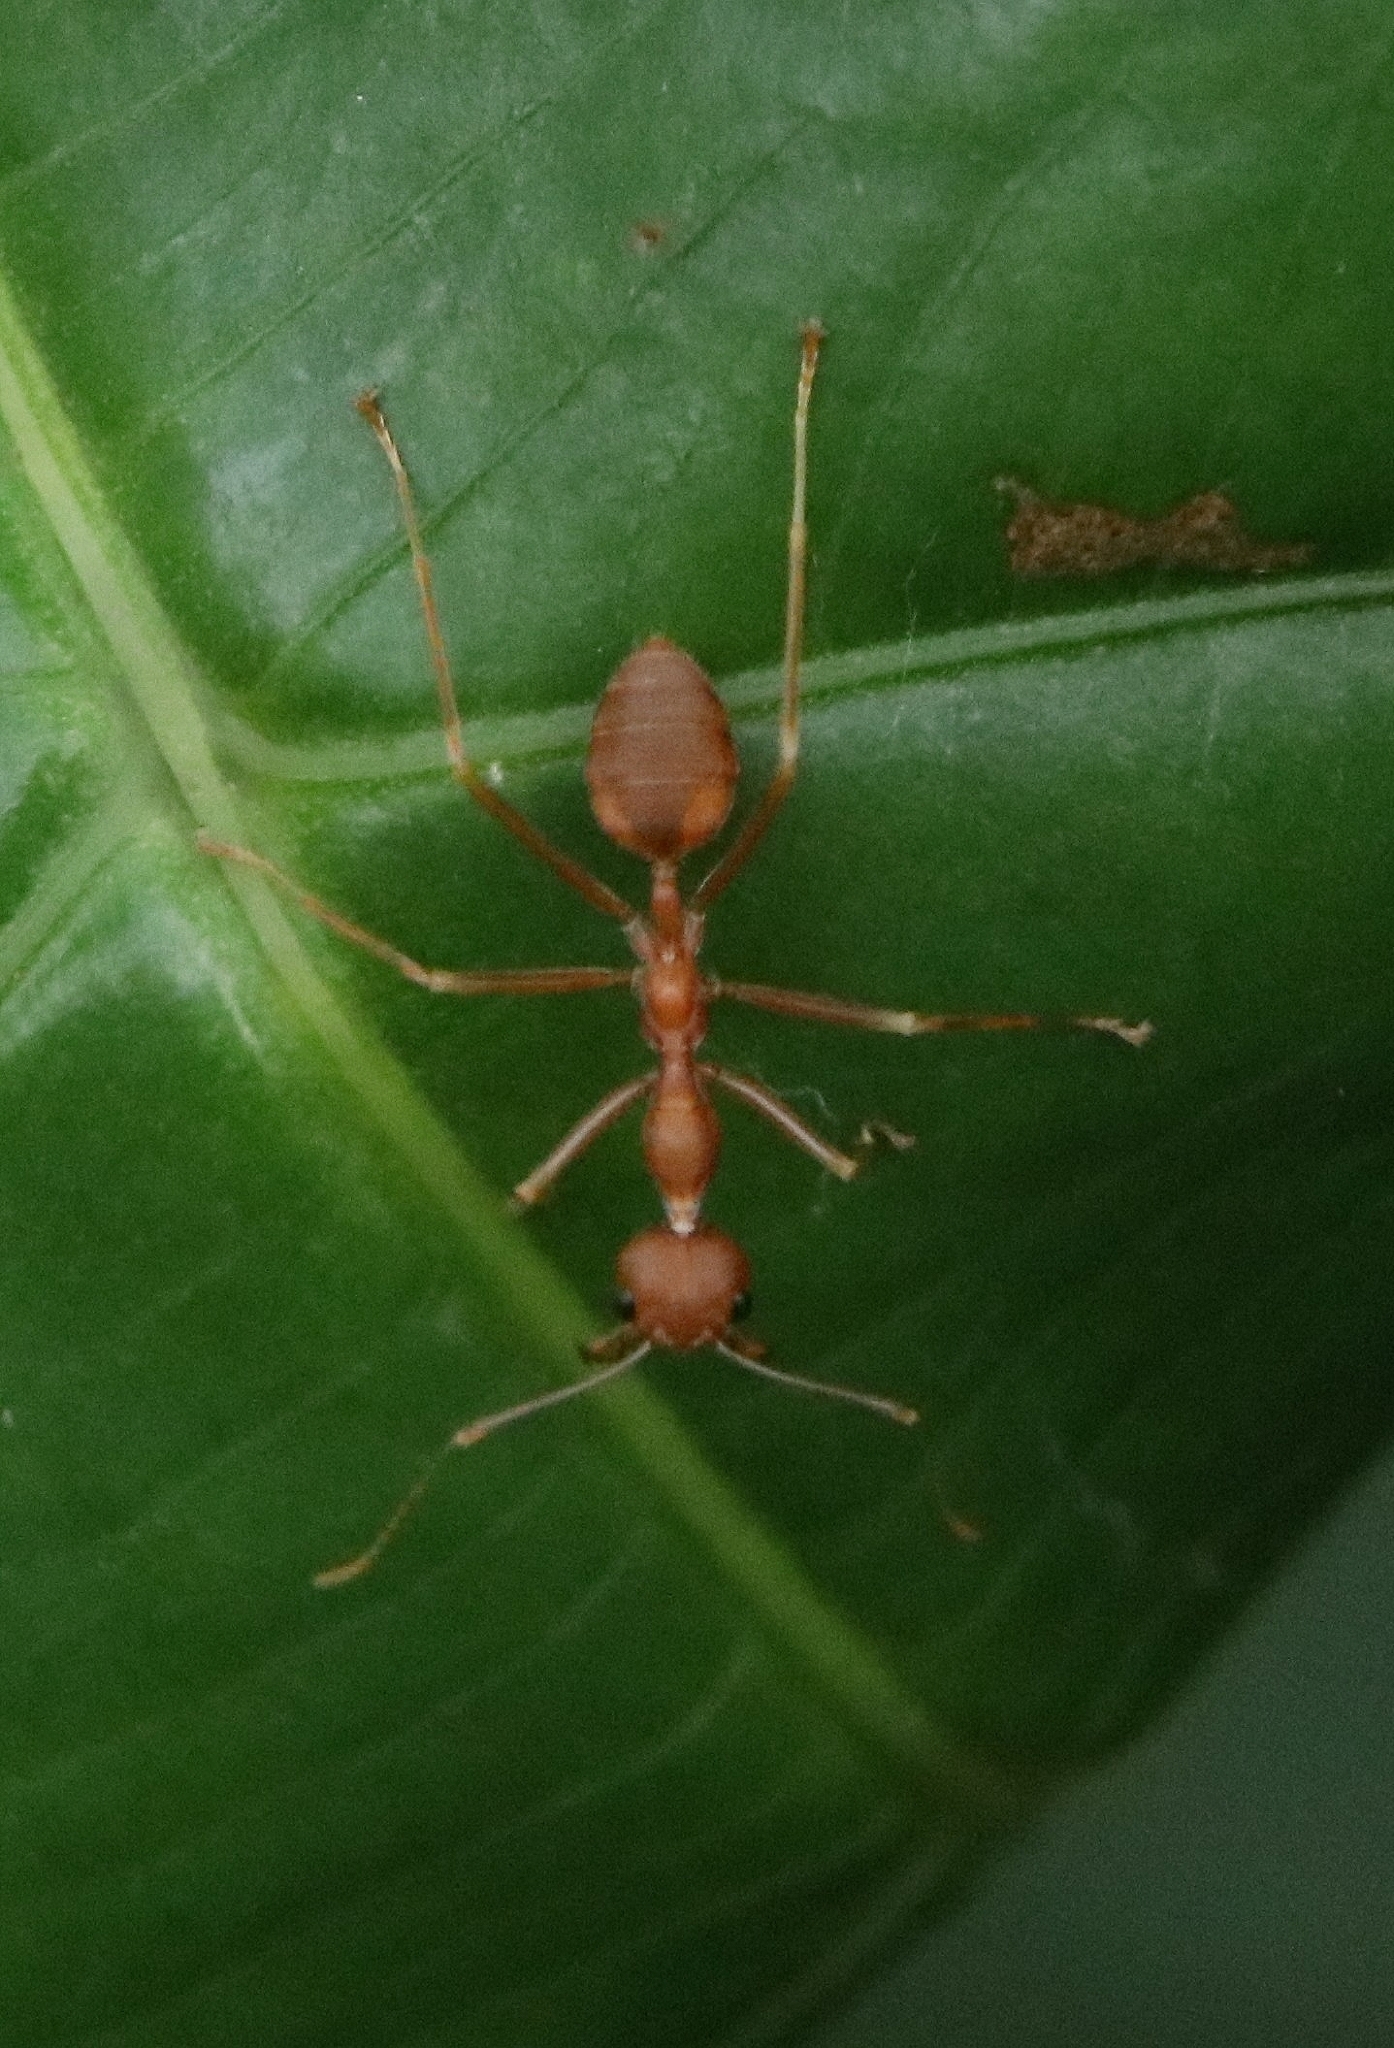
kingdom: Animalia
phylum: Arthropoda
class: Insecta
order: Hymenoptera
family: Formicidae
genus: Oecophylla
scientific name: Oecophylla smaragdina
